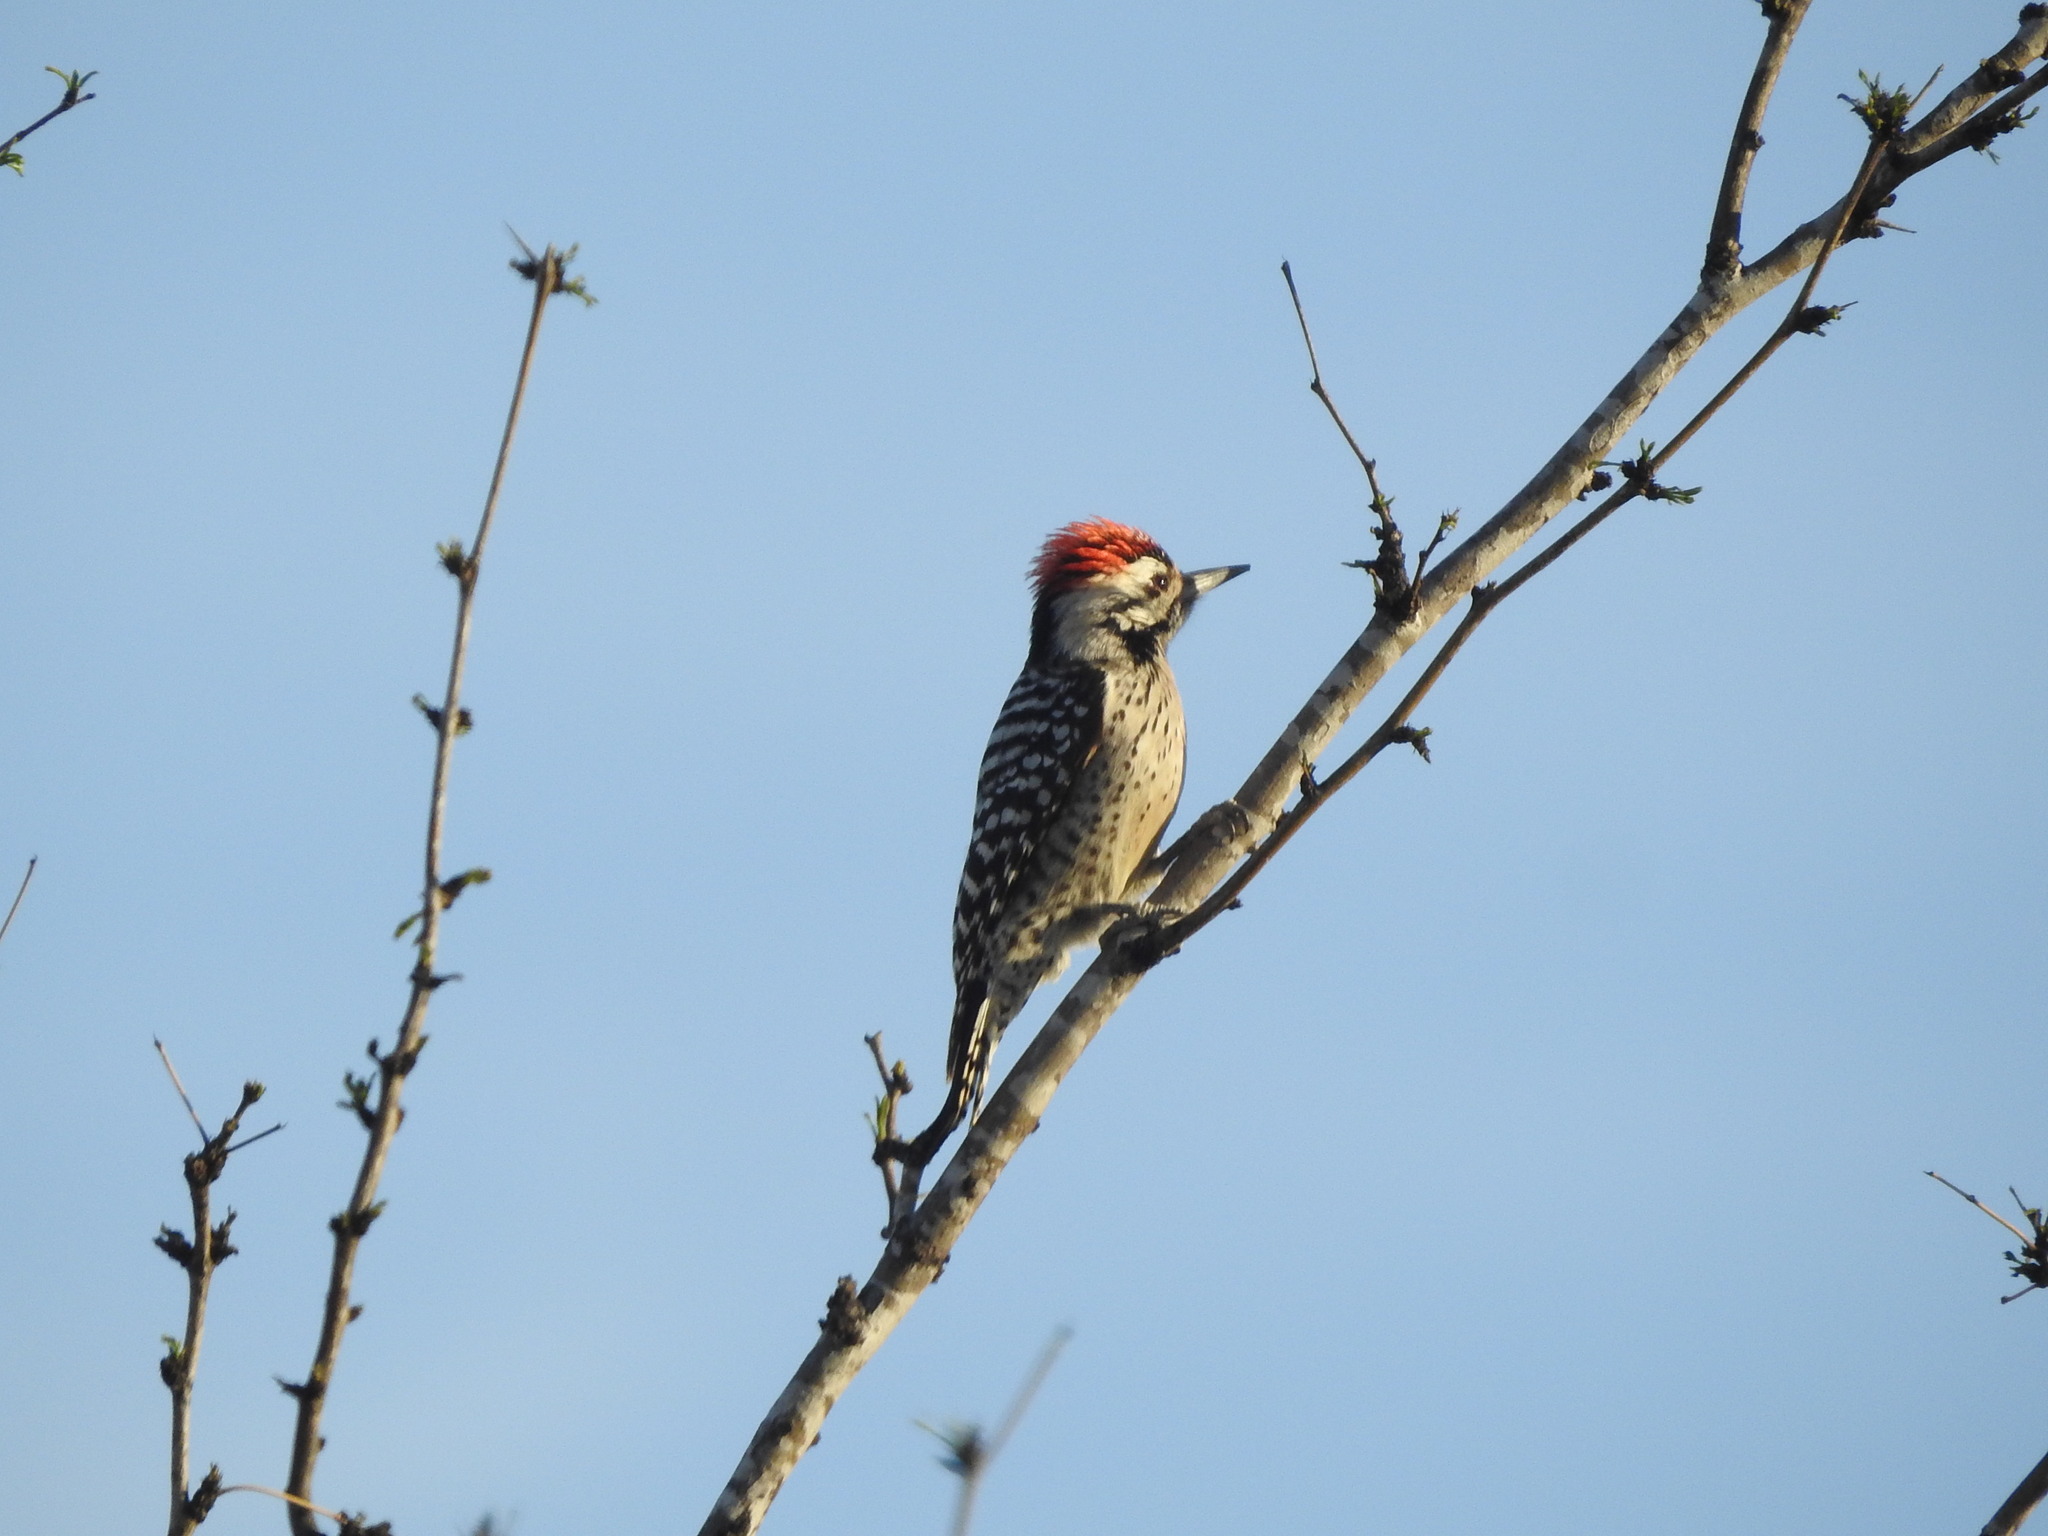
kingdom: Animalia
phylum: Chordata
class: Aves
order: Piciformes
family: Picidae
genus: Dryobates
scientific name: Dryobates scalaris
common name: Ladder-backed woodpecker
